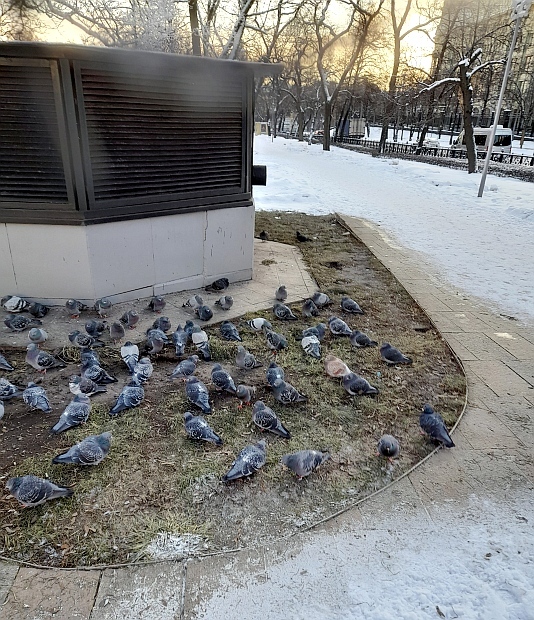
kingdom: Animalia
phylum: Chordata
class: Aves
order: Columbiformes
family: Columbidae
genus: Columba
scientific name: Columba livia
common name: Rock pigeon
